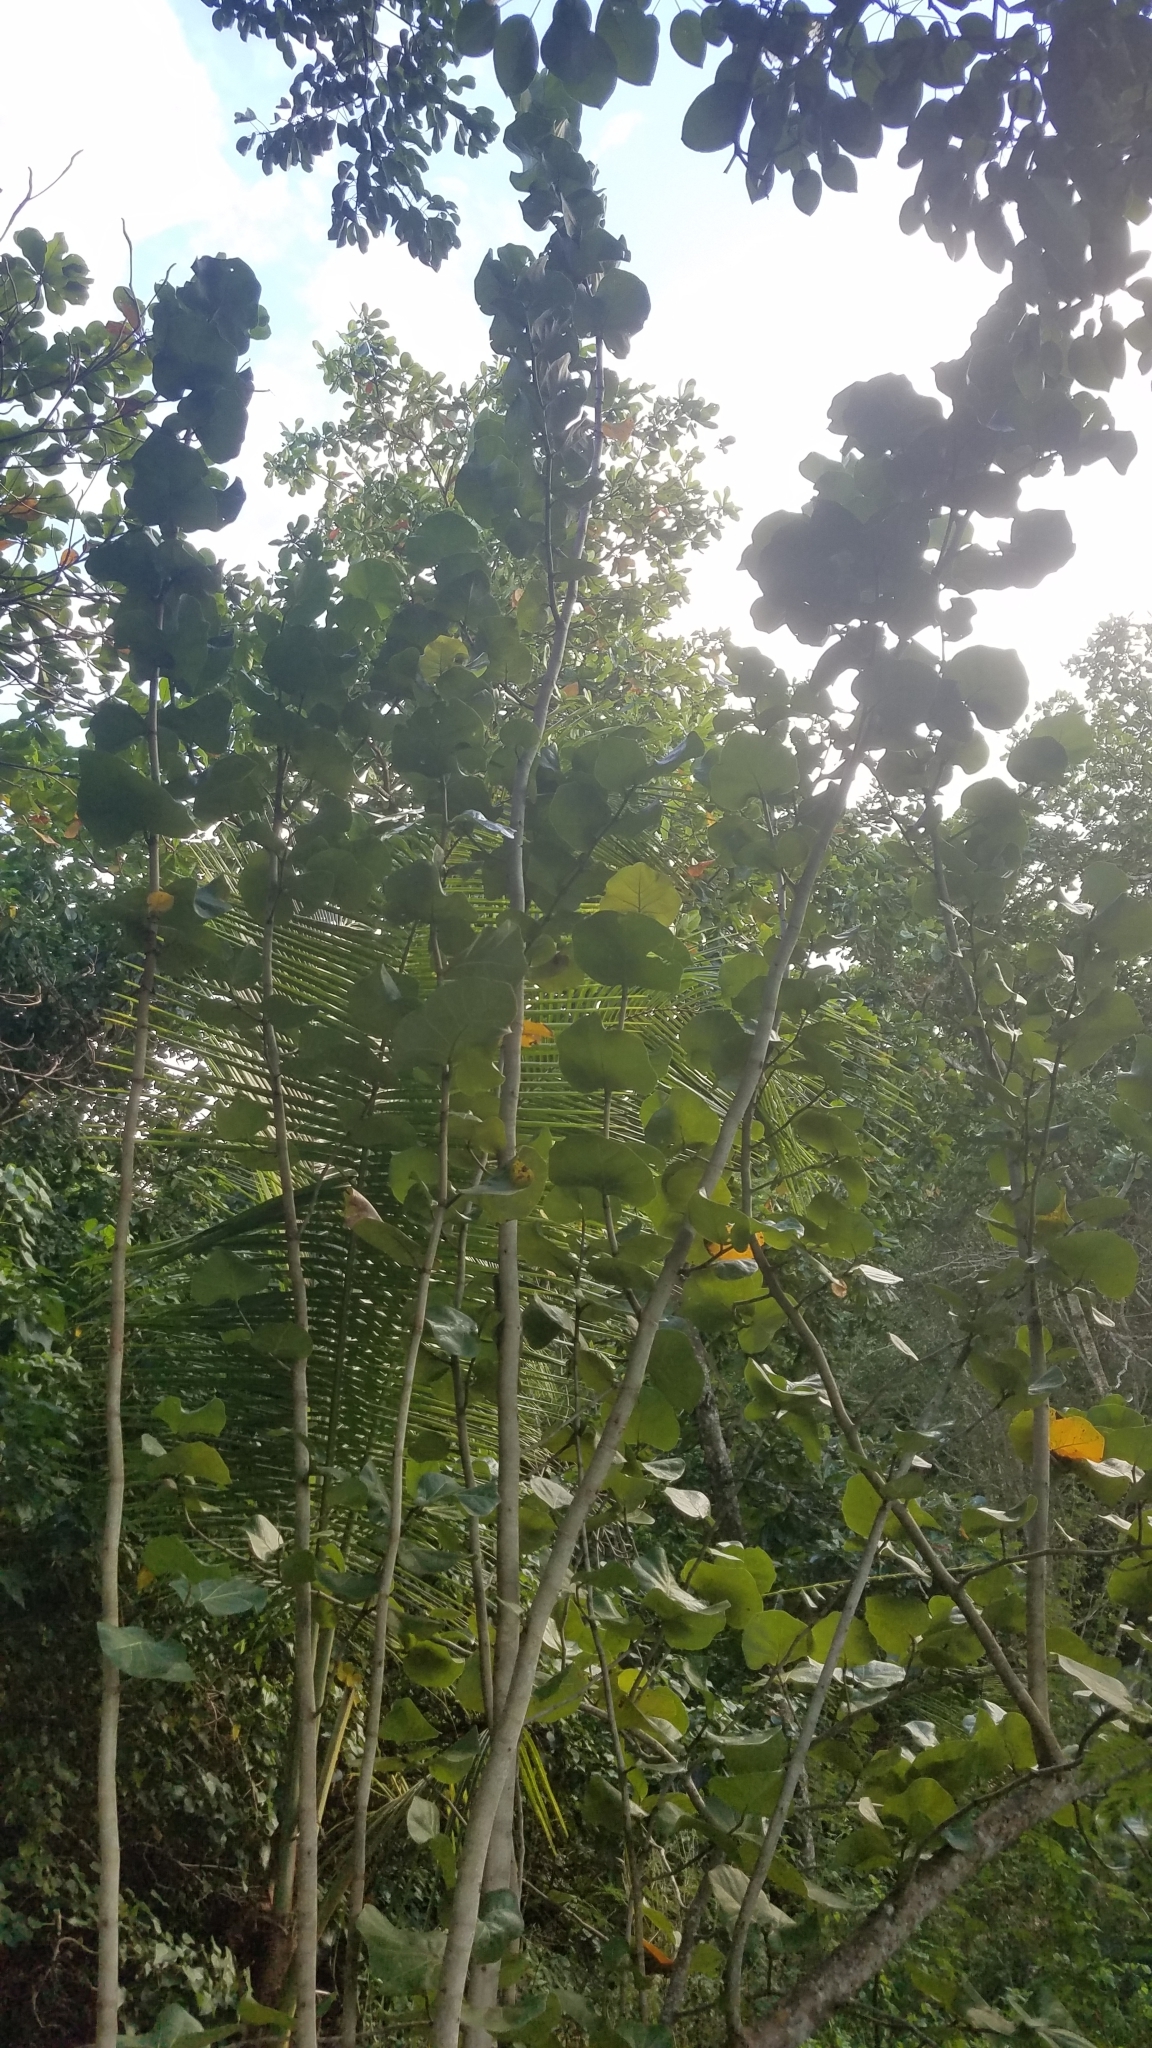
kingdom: Plantae
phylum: Tracheophyta
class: Magnoliopsida
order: Caryophyllales
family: Polygonaceae
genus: Coccoloba
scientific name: Coccoloba uvifera
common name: Seagrape
